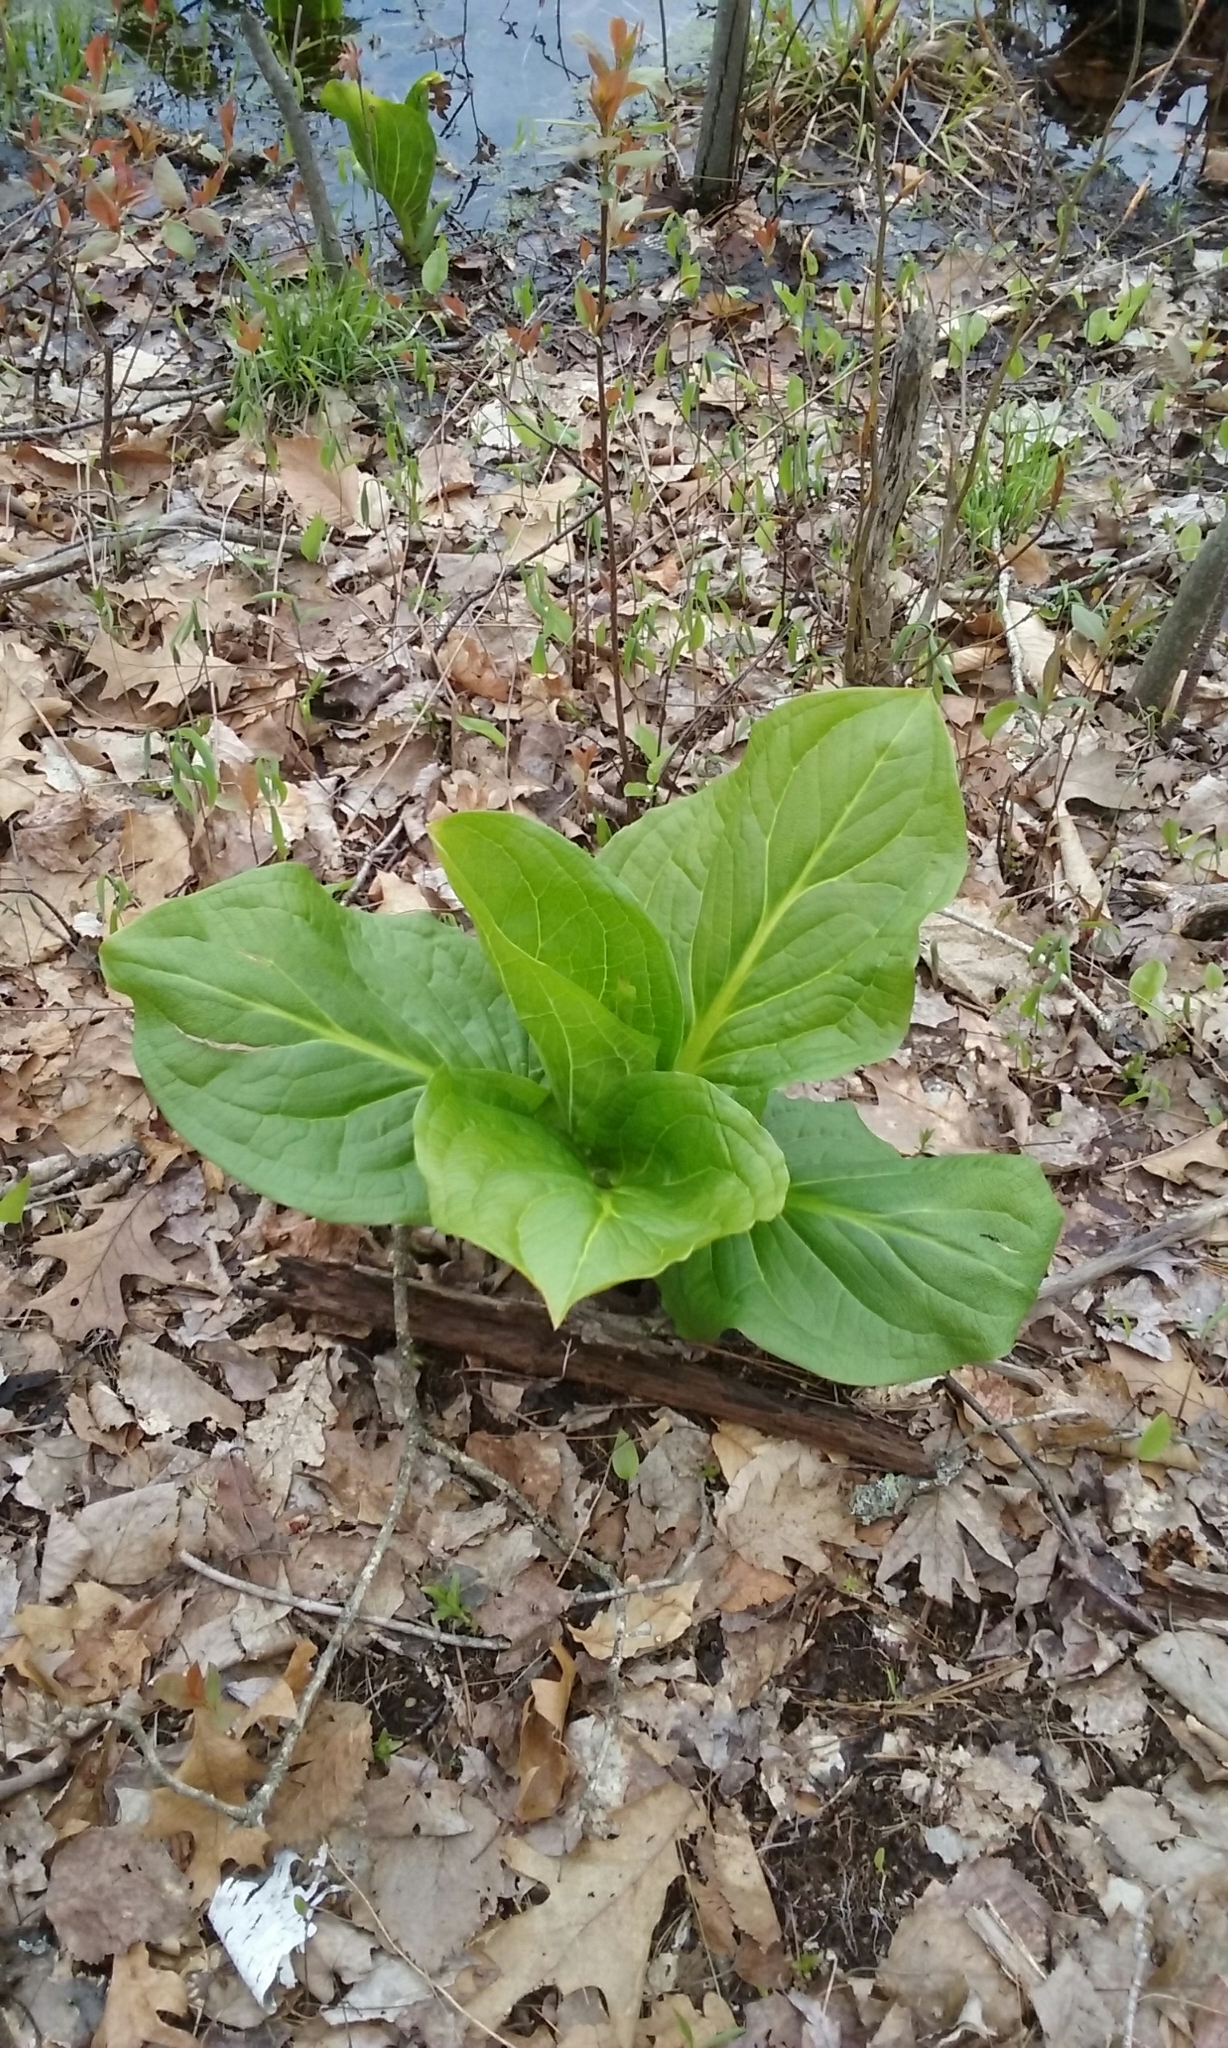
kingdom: Plantae
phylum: Tracheophyta
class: Liliopsida
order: Alismatales
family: Araceae
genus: Symplocarpus
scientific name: Symplocarpus foetidus
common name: Eastern skunk cabbage
